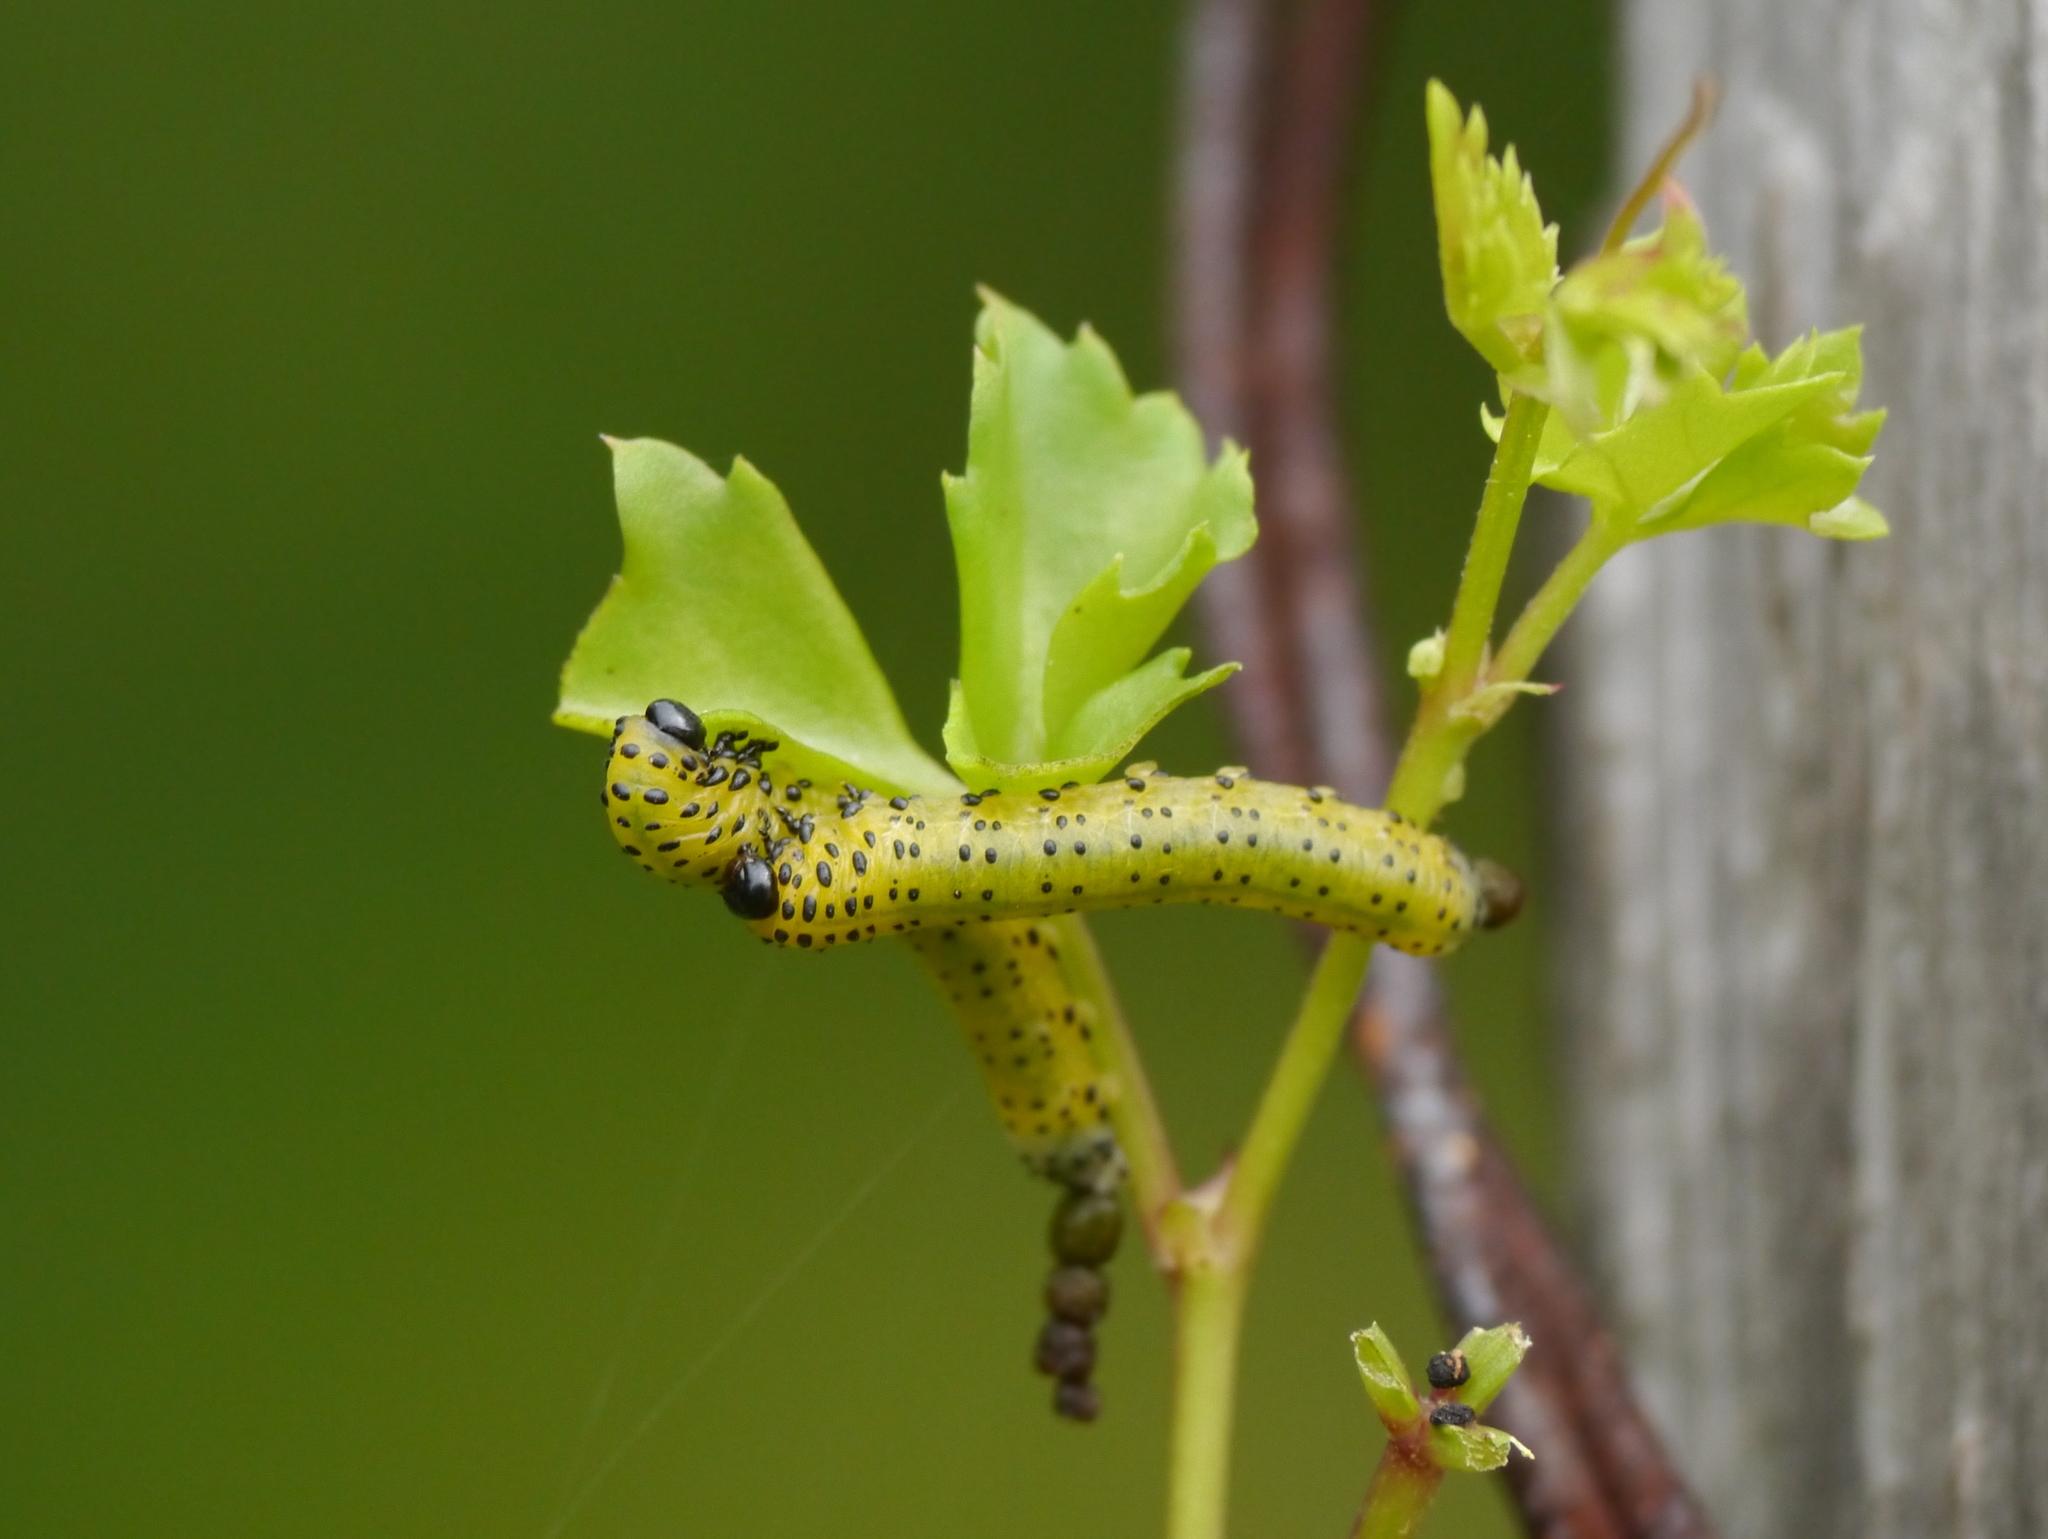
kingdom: Animalia
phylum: Arthropoda
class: Insecta
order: Hymenoptera
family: Tenthredinidae
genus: Ceratulus
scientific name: Ceratulus
